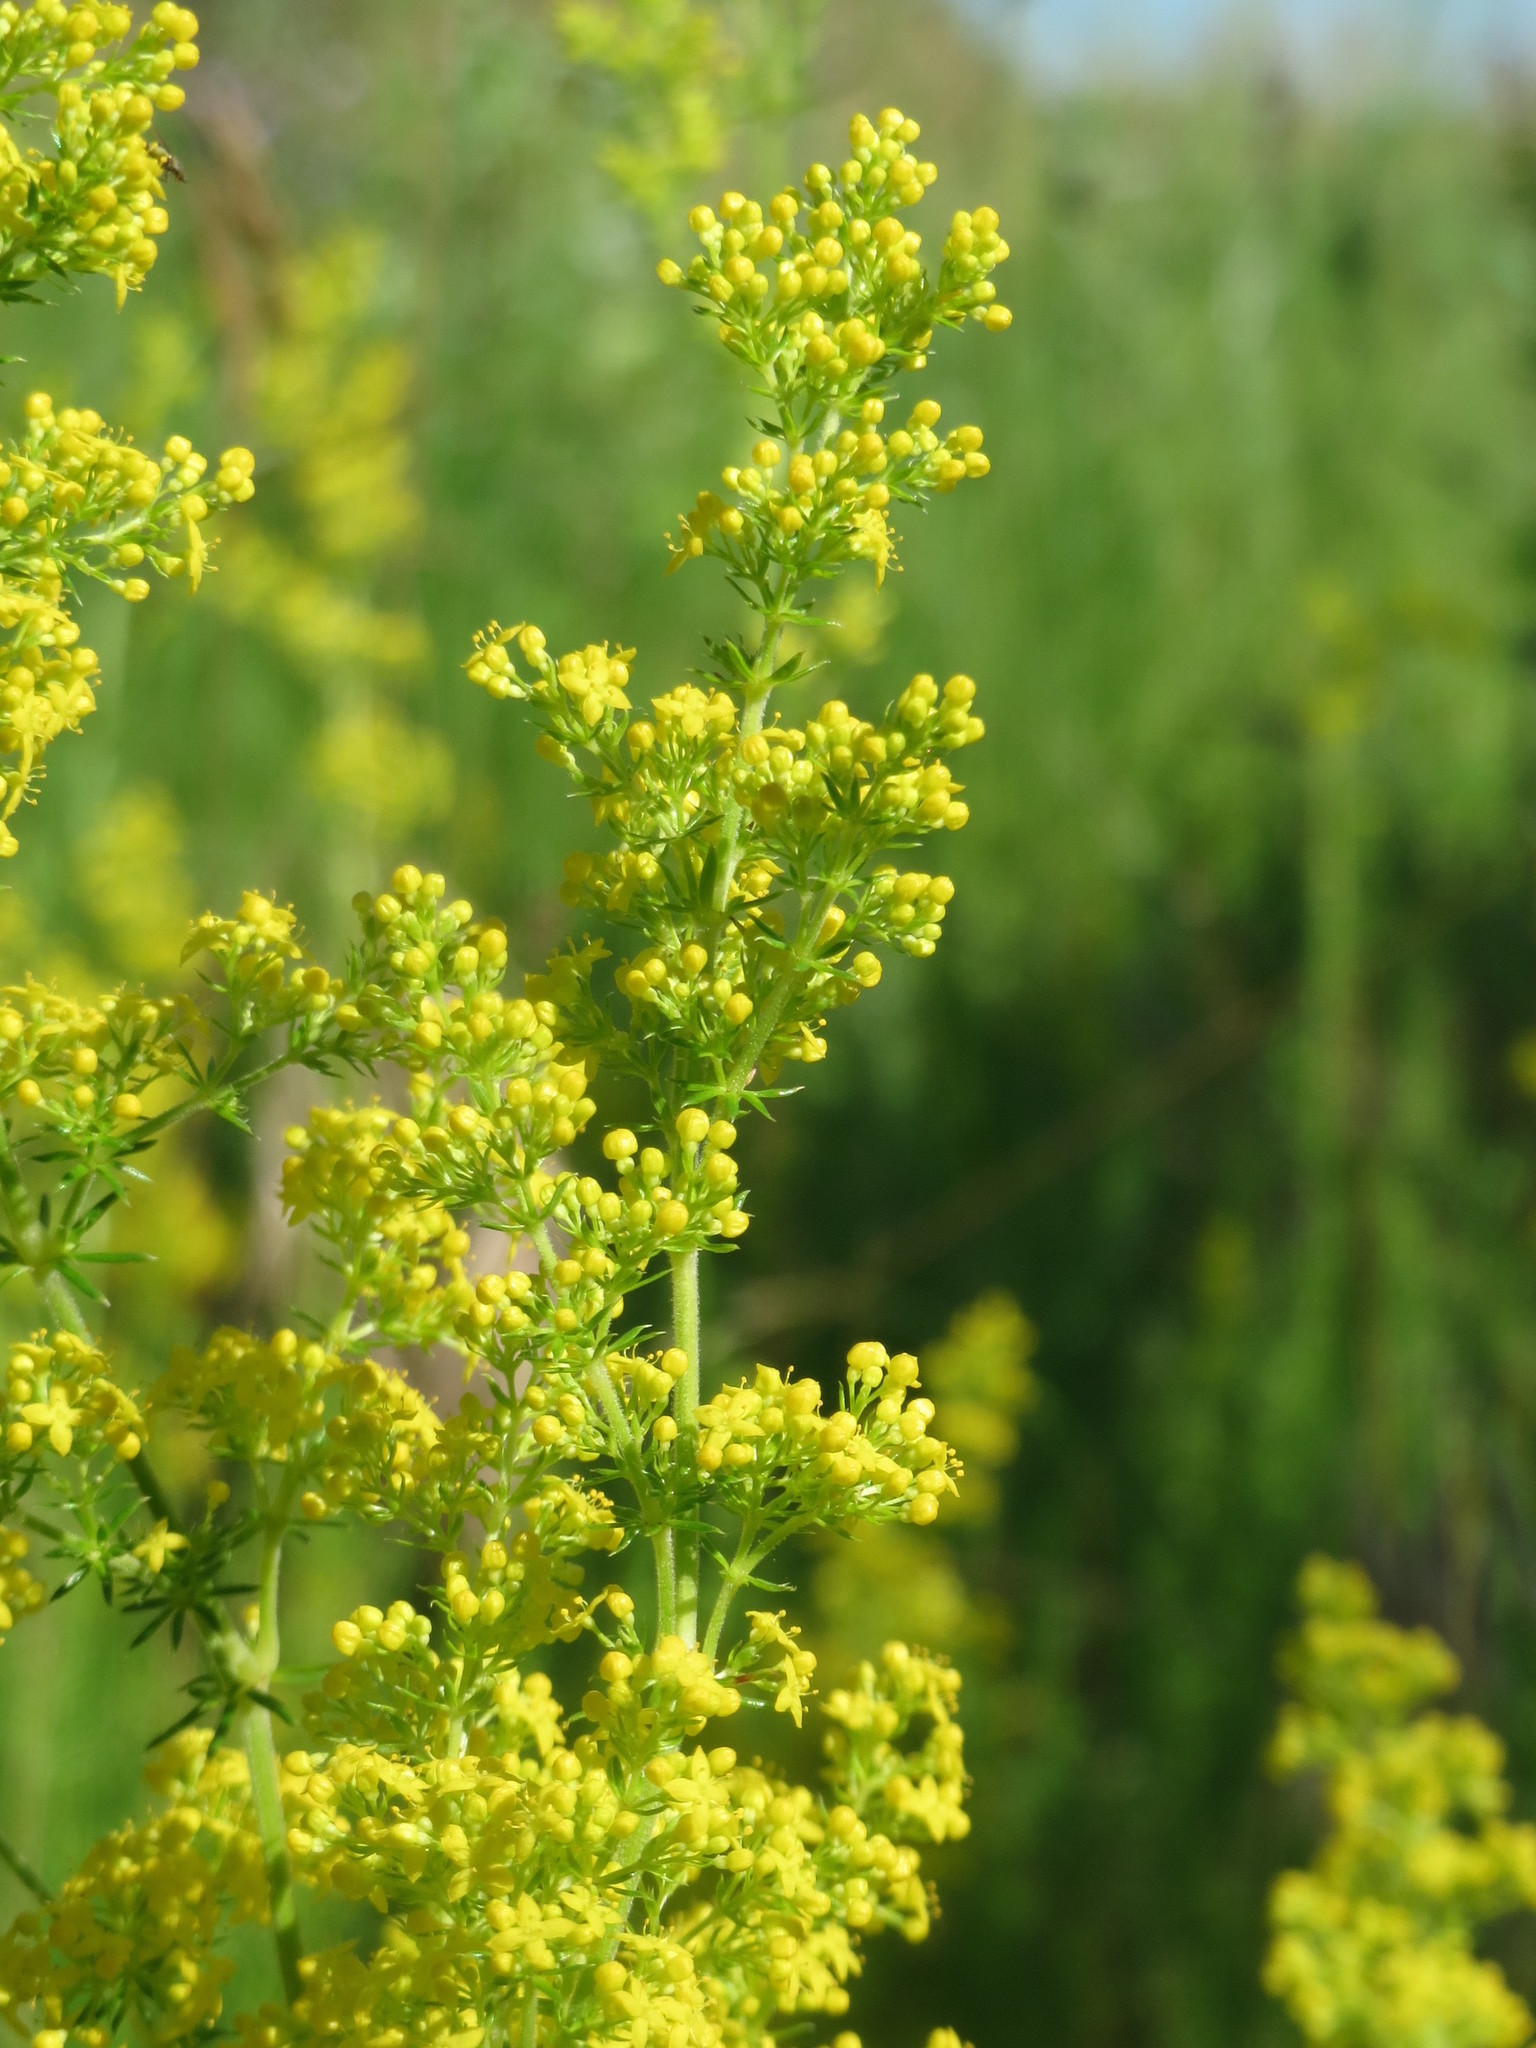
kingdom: Plantae
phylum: Tracheophyta
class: Magnoliopsida
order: Gentianales
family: Rubiaceae
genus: Galium
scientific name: Galium verum
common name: Lady's bedstraw
